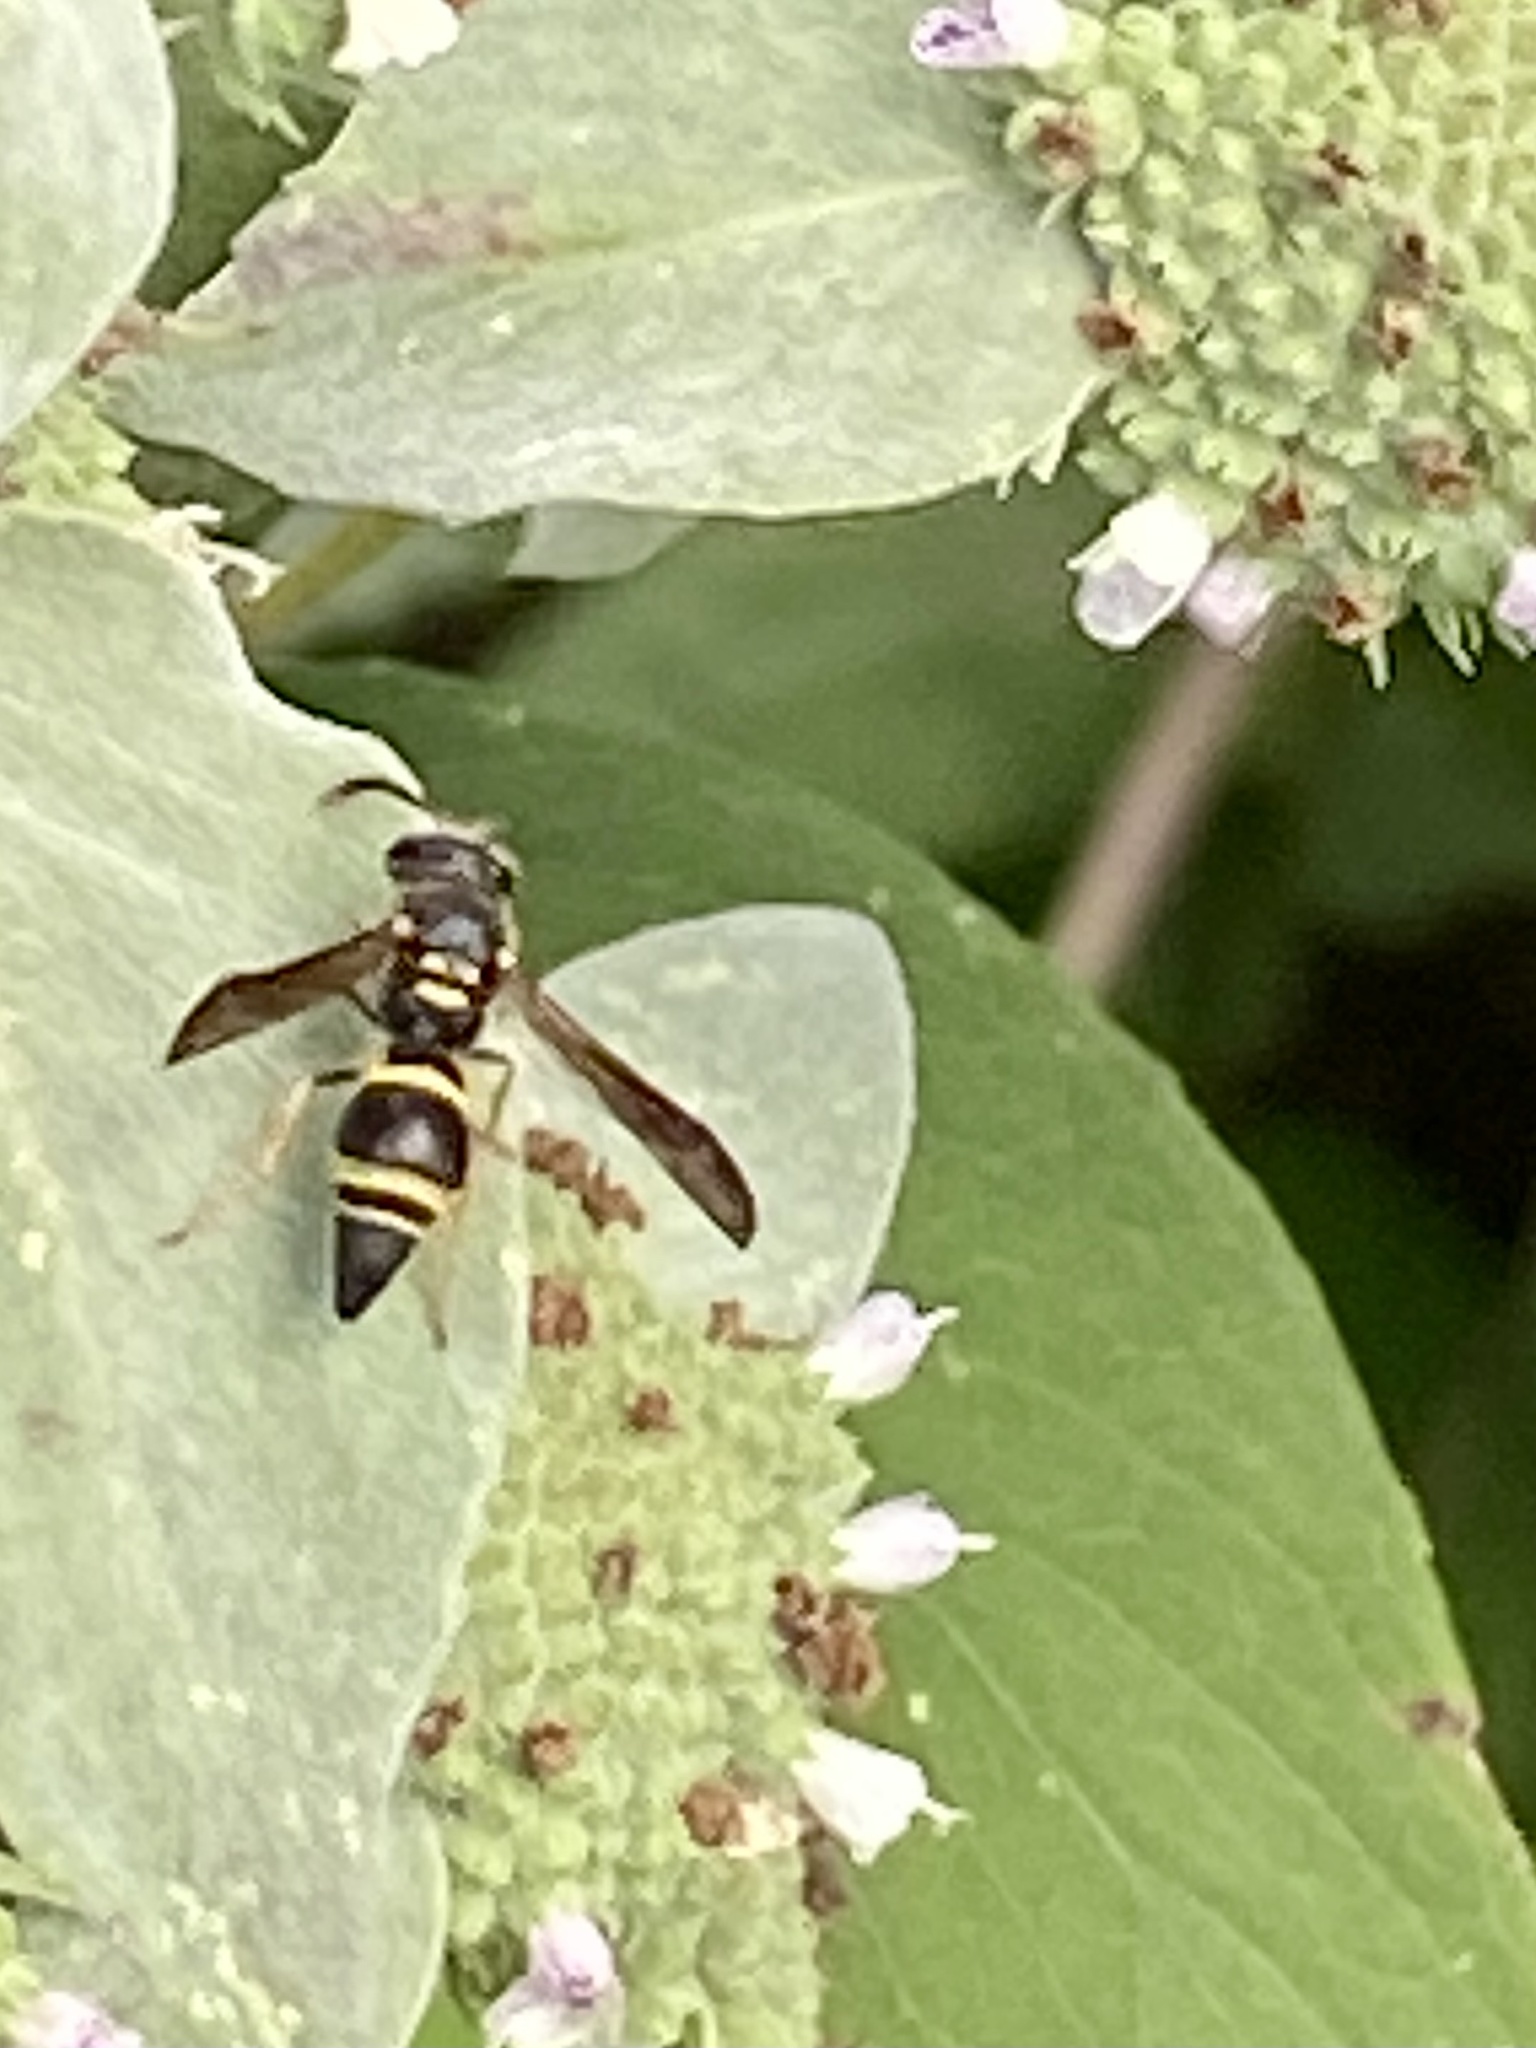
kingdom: Animalia
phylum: Arthropoda
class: Insecta
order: Hymenoptera
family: Vespidae
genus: Ancistrocerus
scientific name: Ancistrocerus campestris
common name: Smiling mason wasp
